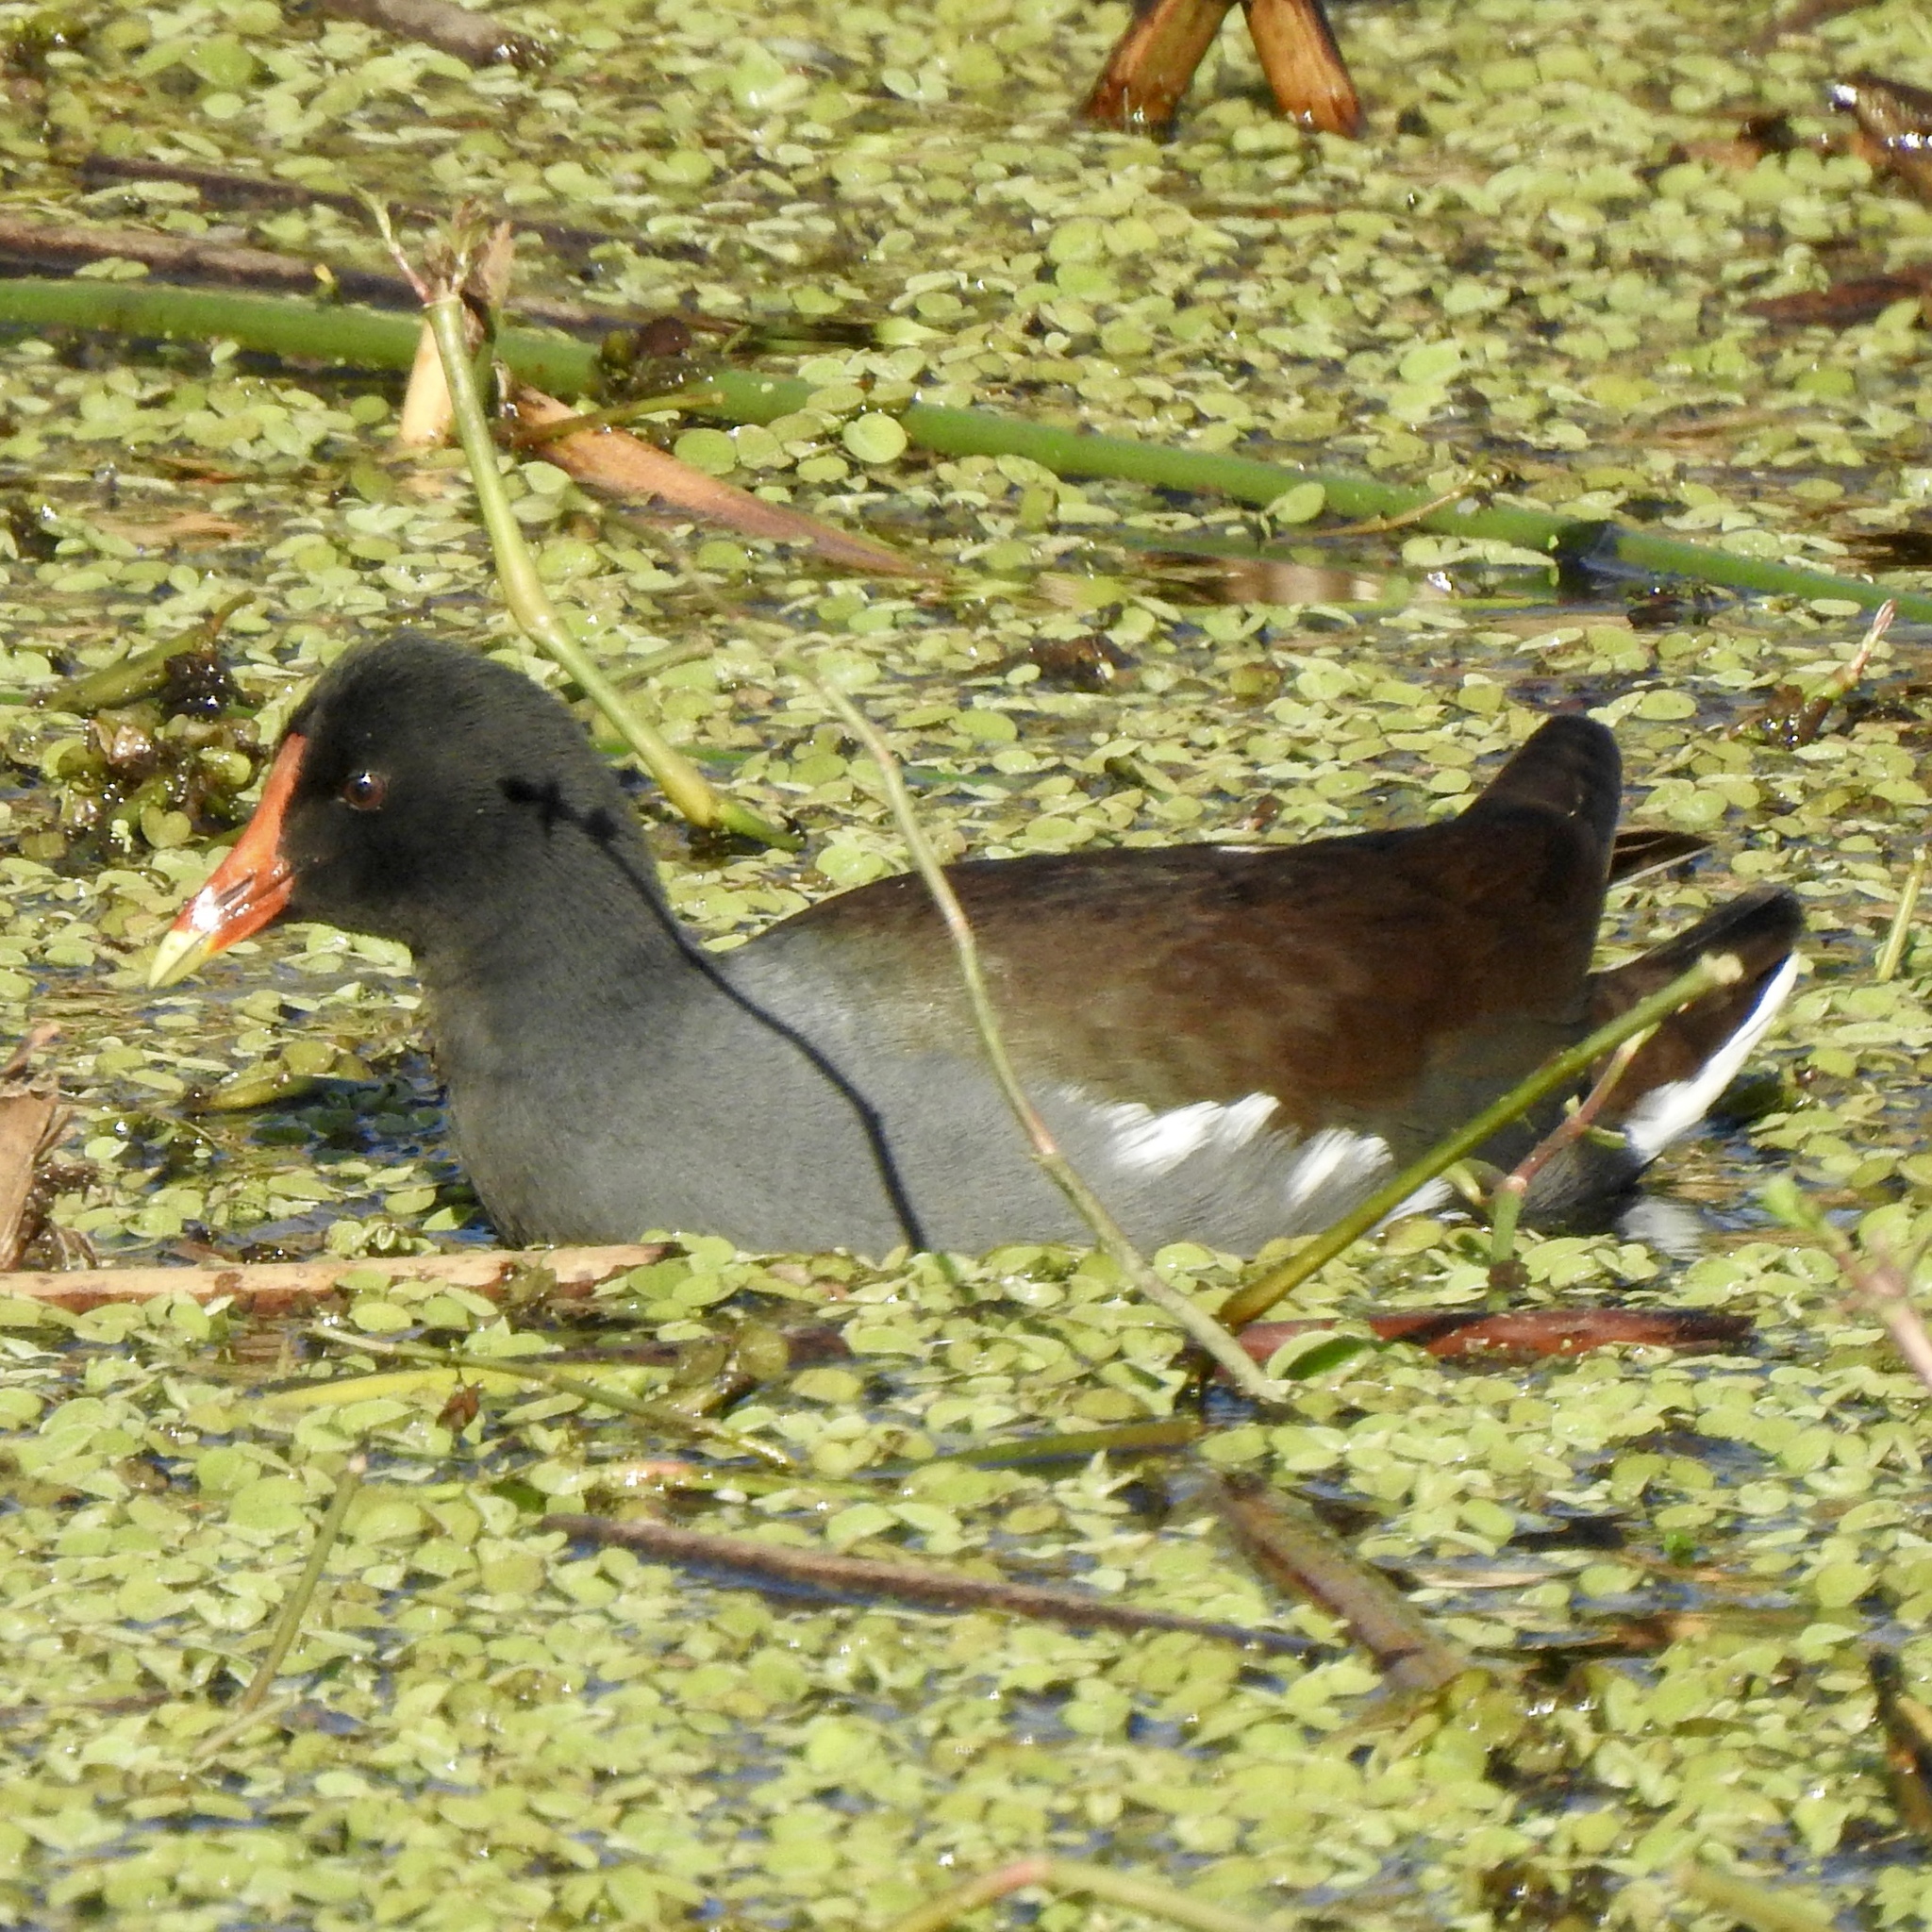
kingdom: Animalia
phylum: Chordata
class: Aves
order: Gruiformes
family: Rallidae
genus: Gallinula
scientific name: Gallinula chloropus
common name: Common moorhen
